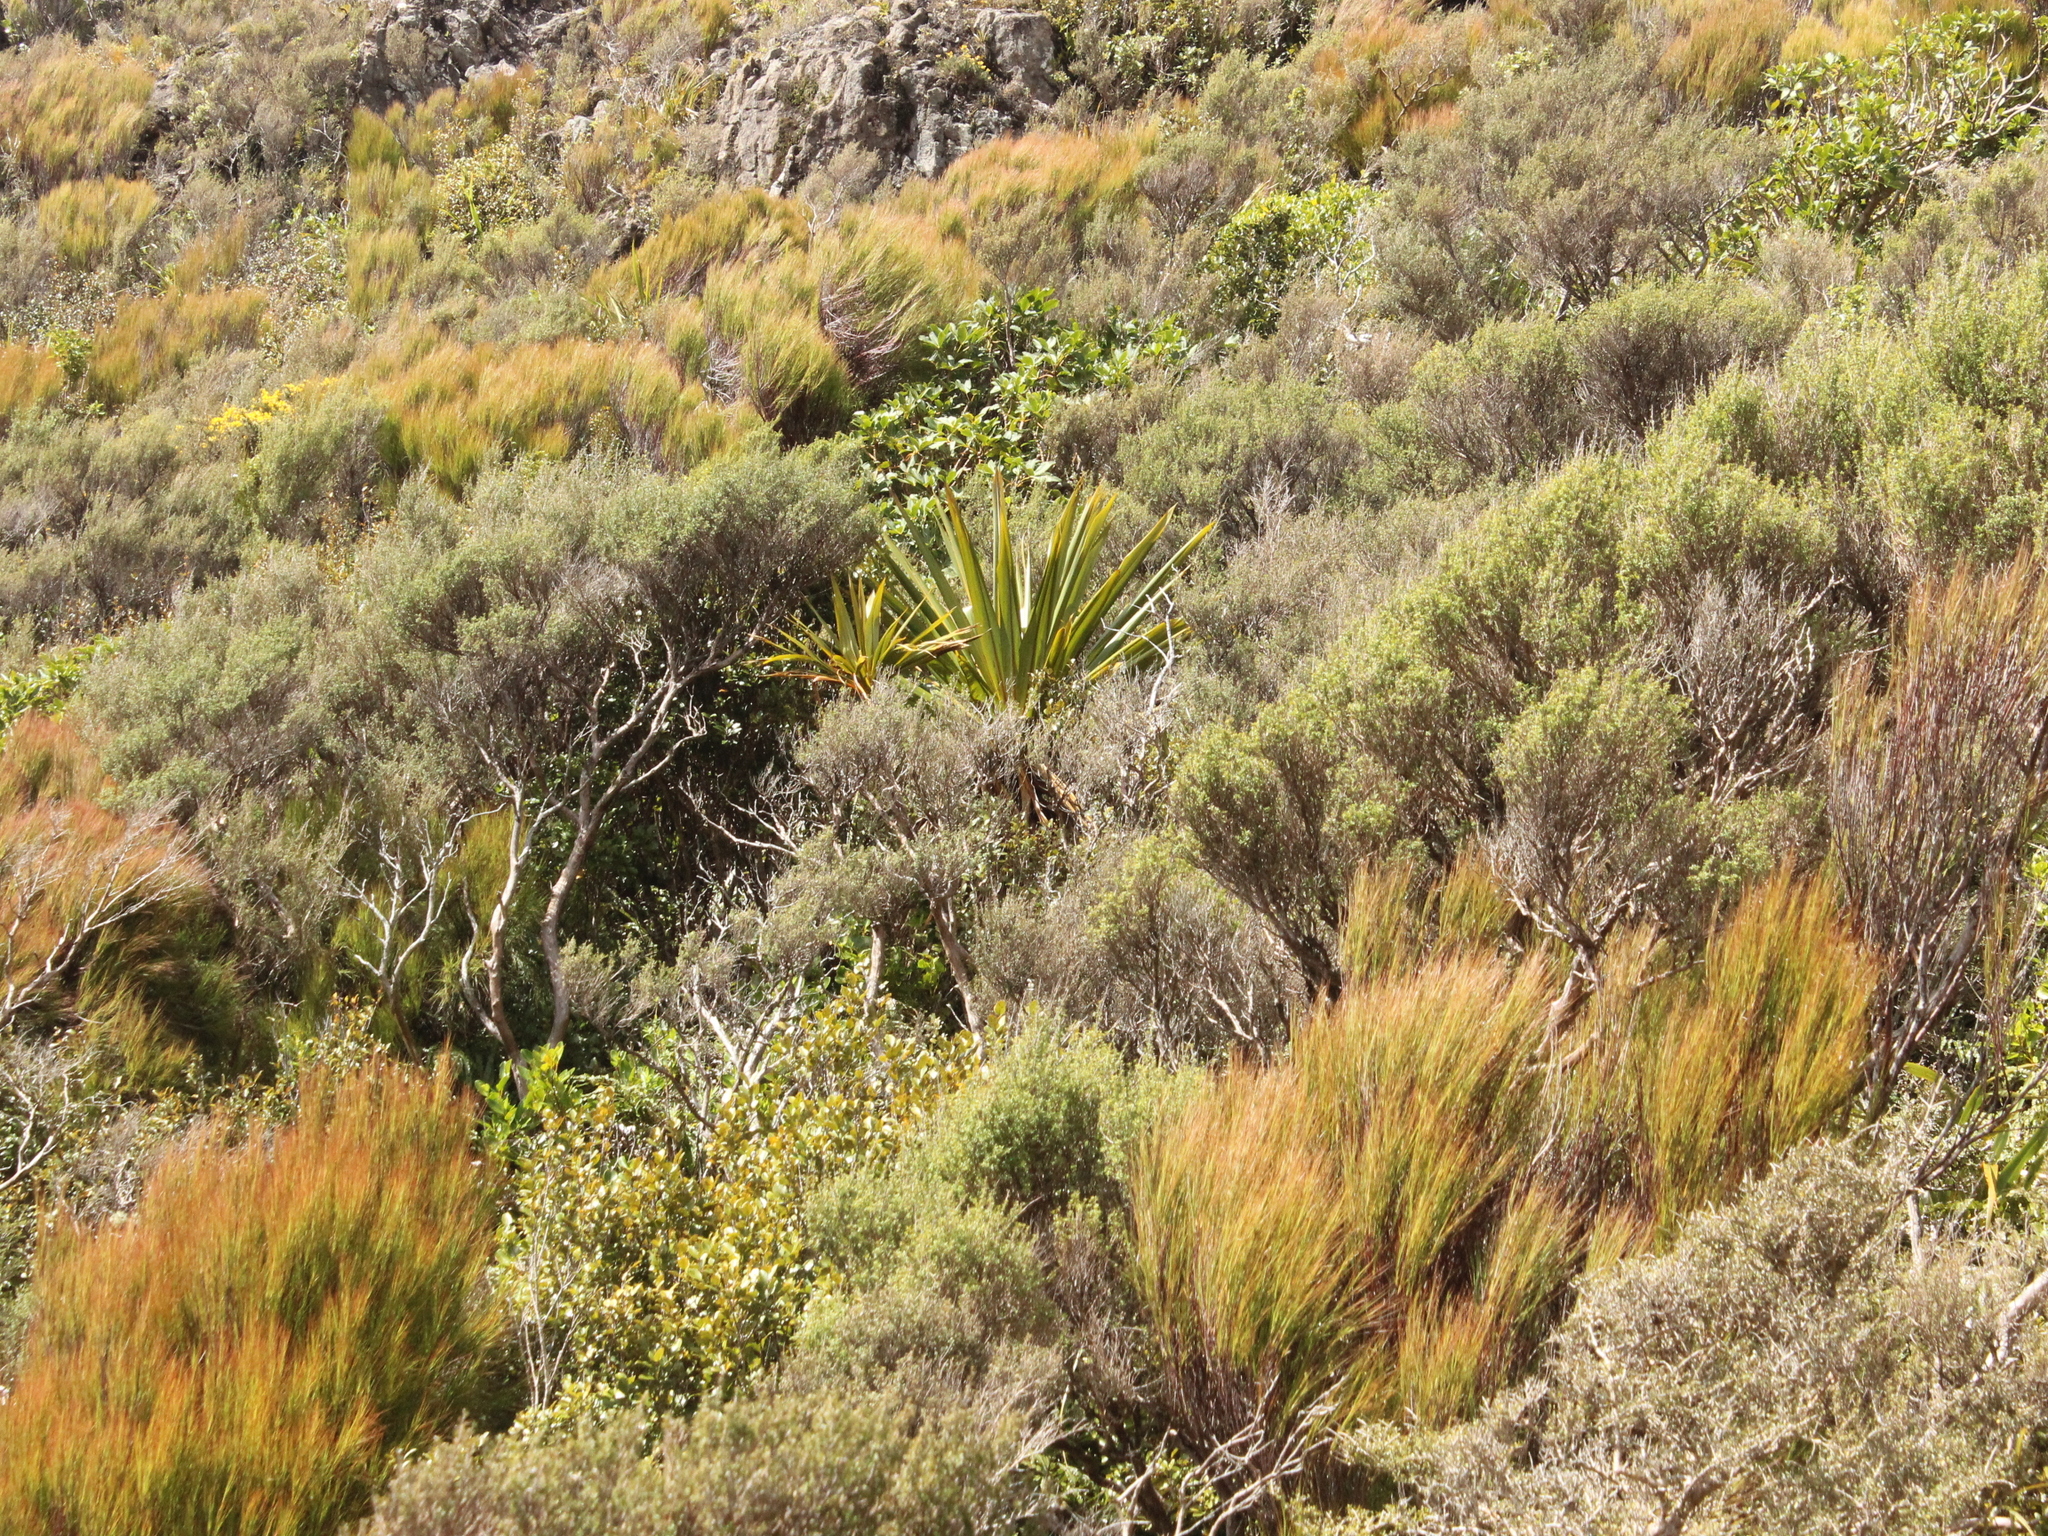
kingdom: Plantae
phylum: Tracheophyta
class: Liliopsida
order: Asparagales
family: Asparagaceae
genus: Cordyline
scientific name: Cordyline indivisa
